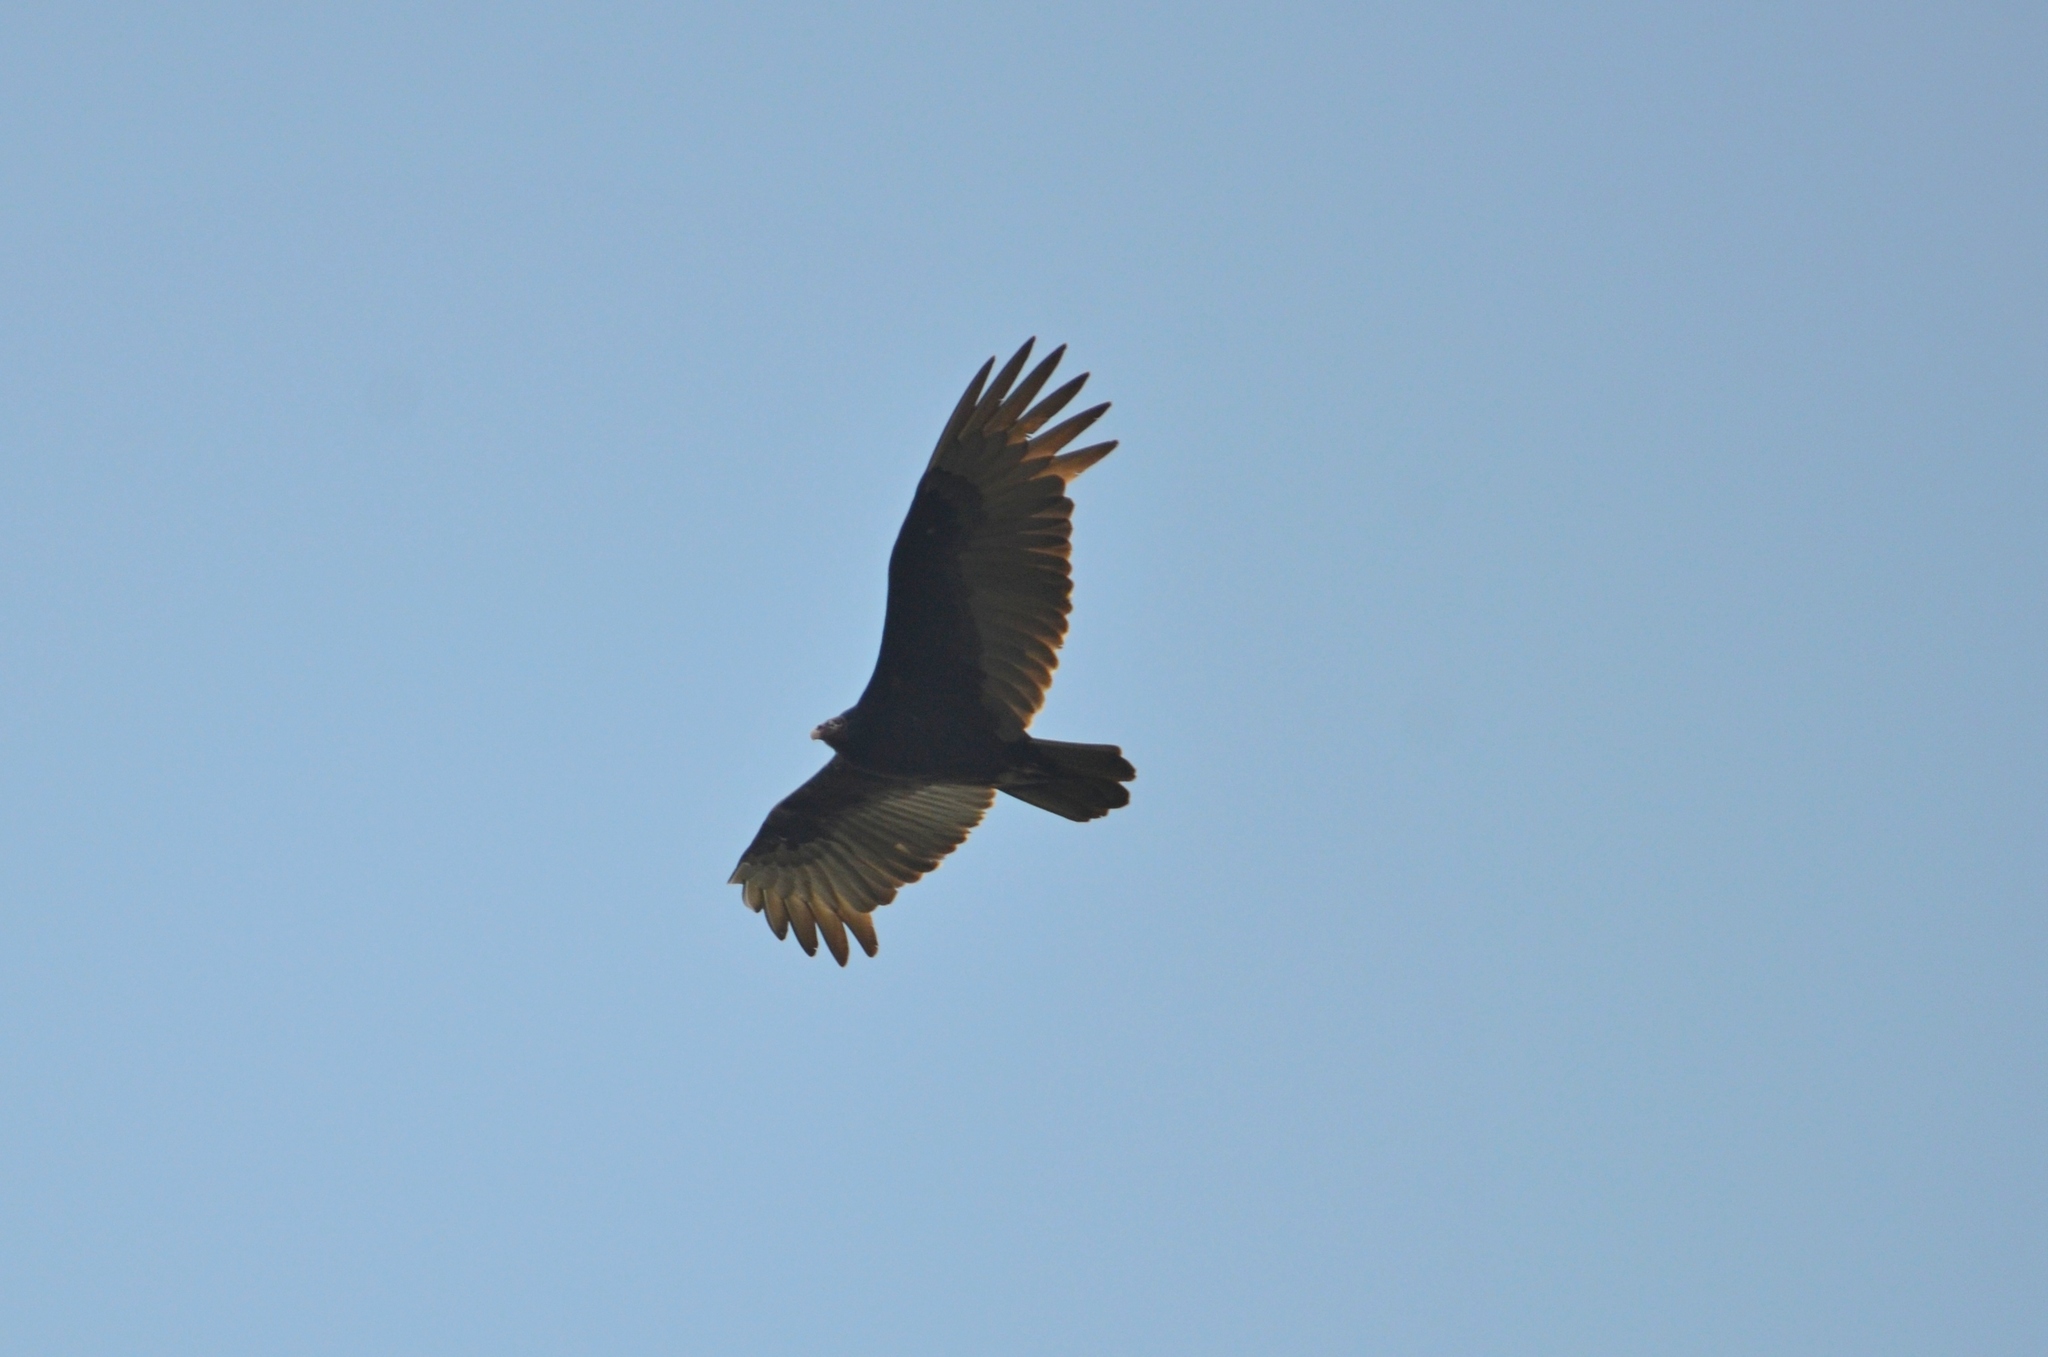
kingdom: Animalia
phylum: Chordata
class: Aves
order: Accipitriformes
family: Cathartidae
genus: Cathartes
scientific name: Cathartes aura
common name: Turkey vulture
